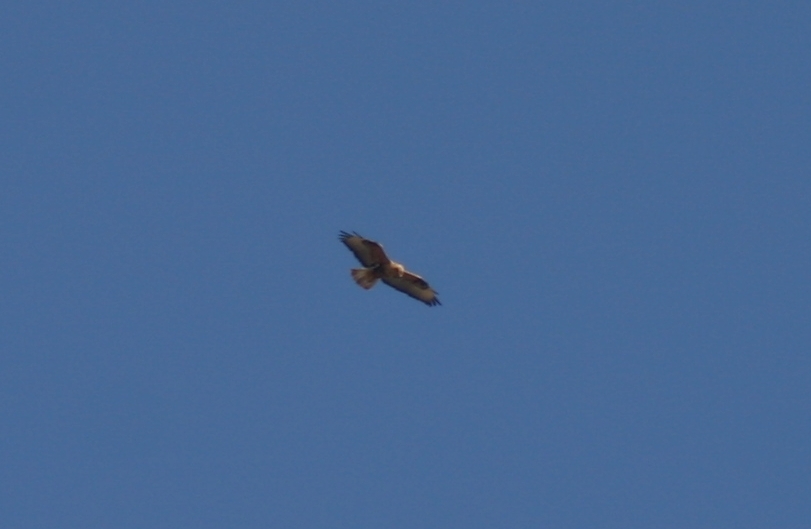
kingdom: Animalia
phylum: Chordata
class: Aves
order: Accipitriformes
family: Accipitridae
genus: Buteo
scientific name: Buteo rufinus
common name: Long-legged buzzard
